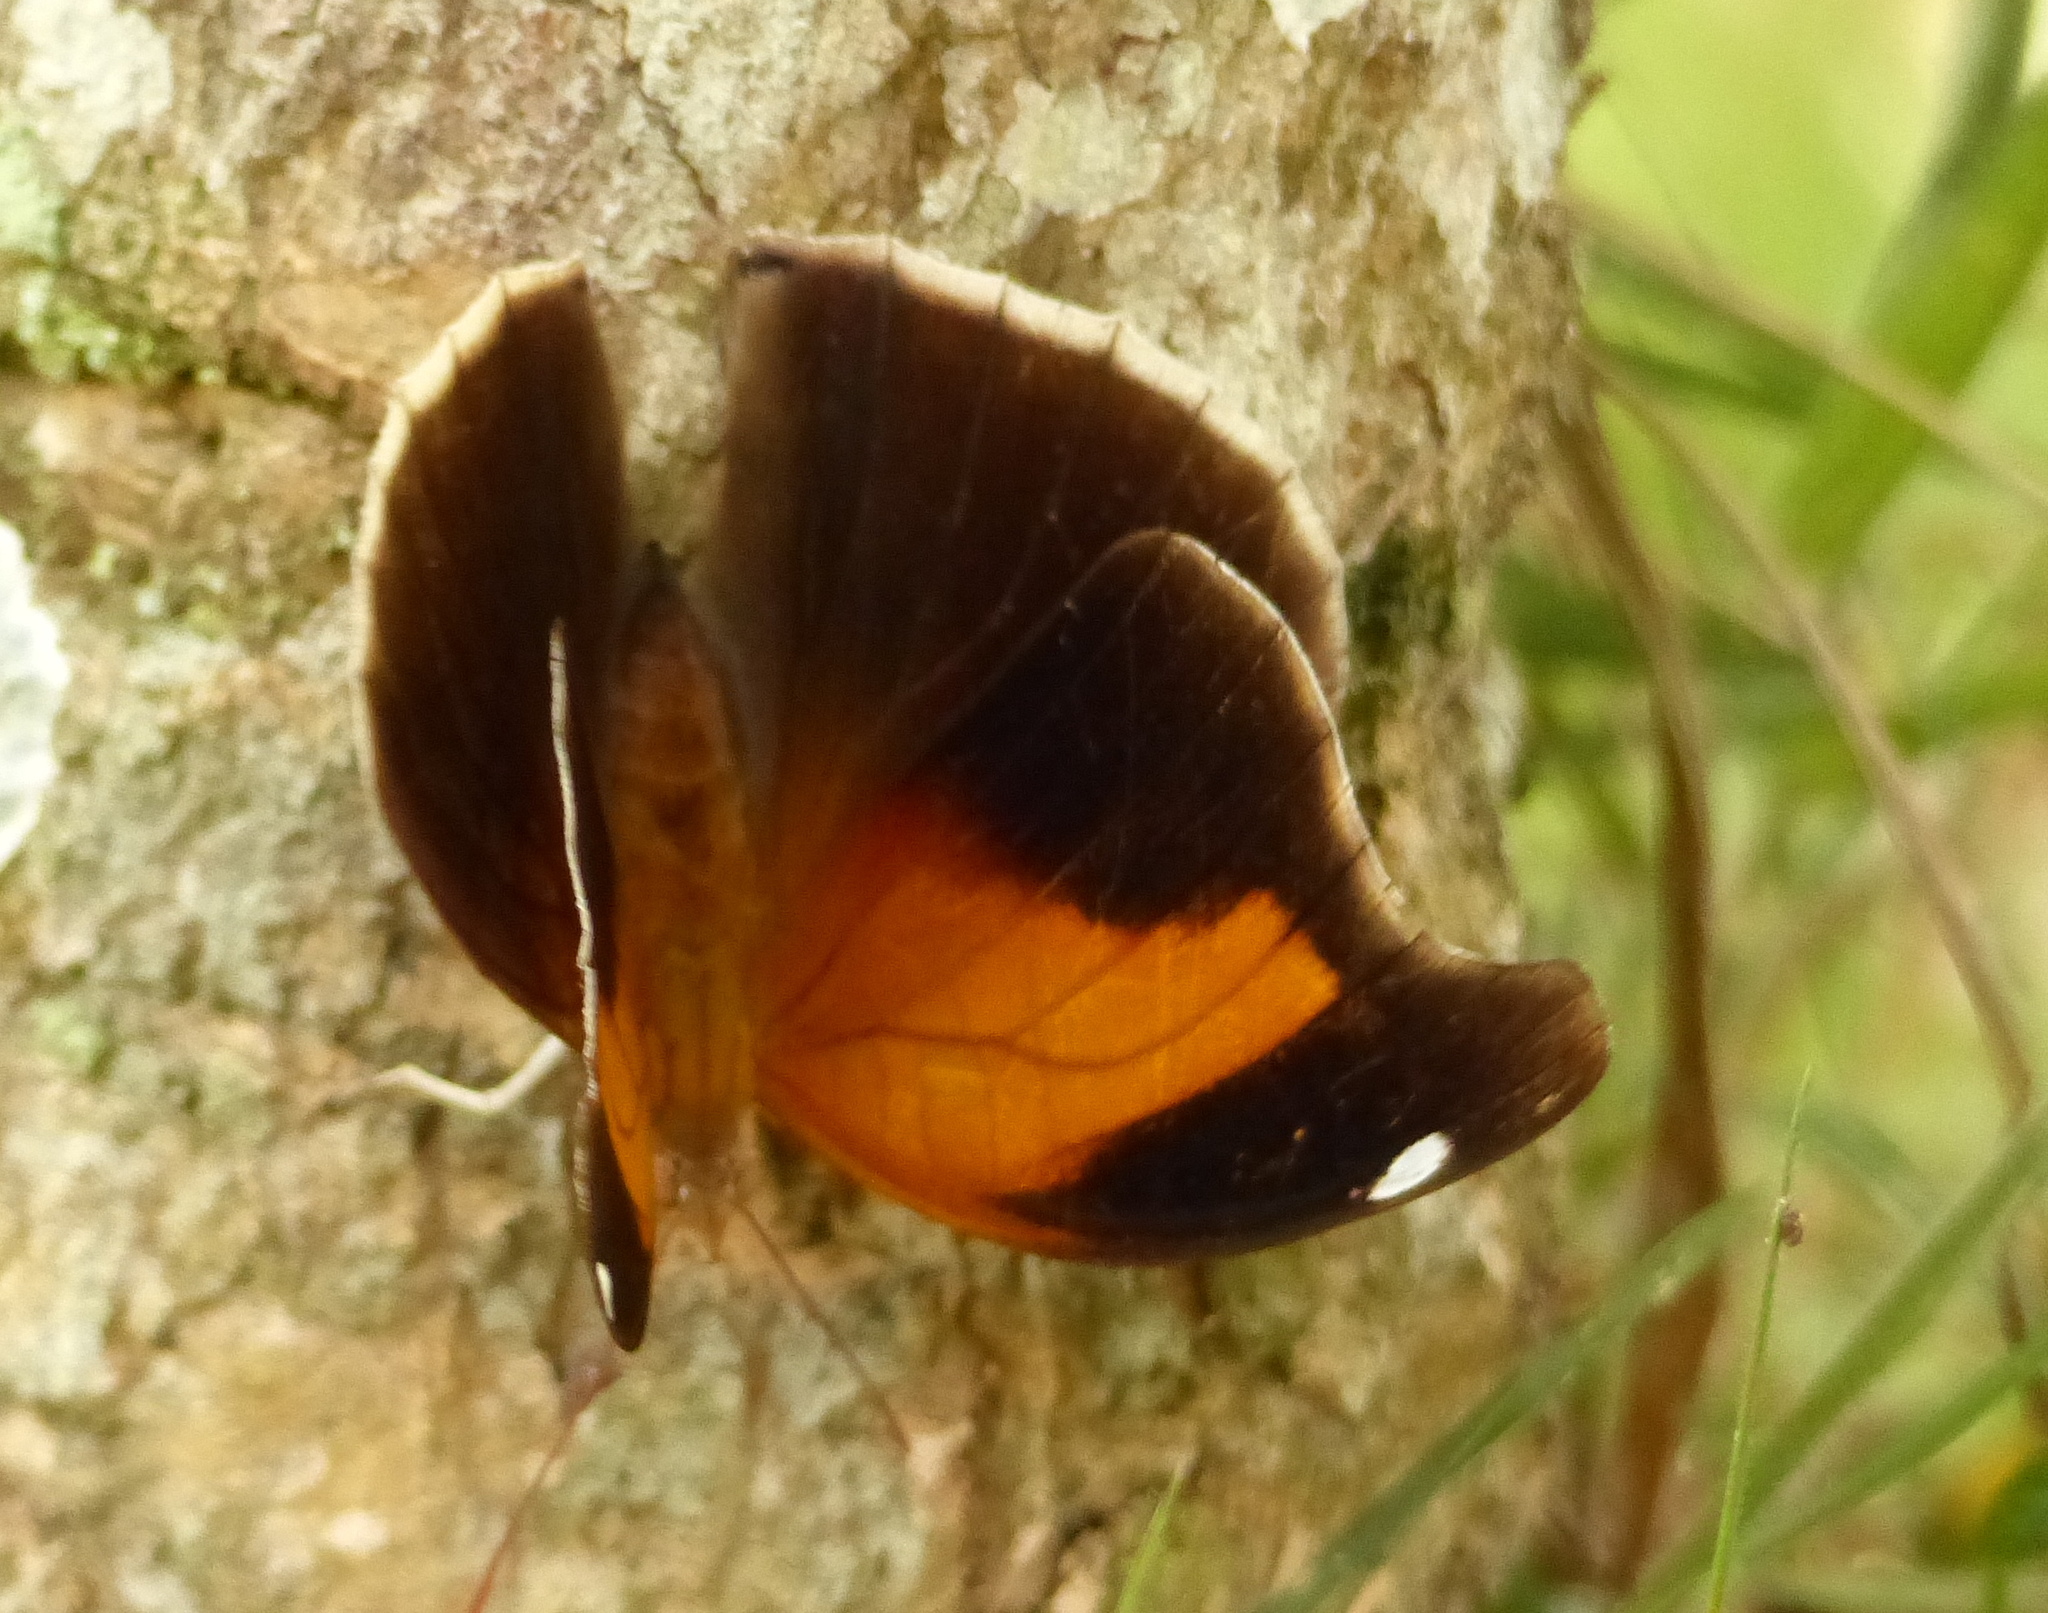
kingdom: Animalia
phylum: Arthropoda
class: Insecta
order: Lepidoptera
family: Nymphalidae
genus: Historis
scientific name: Historis odius
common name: Orion cecropian
